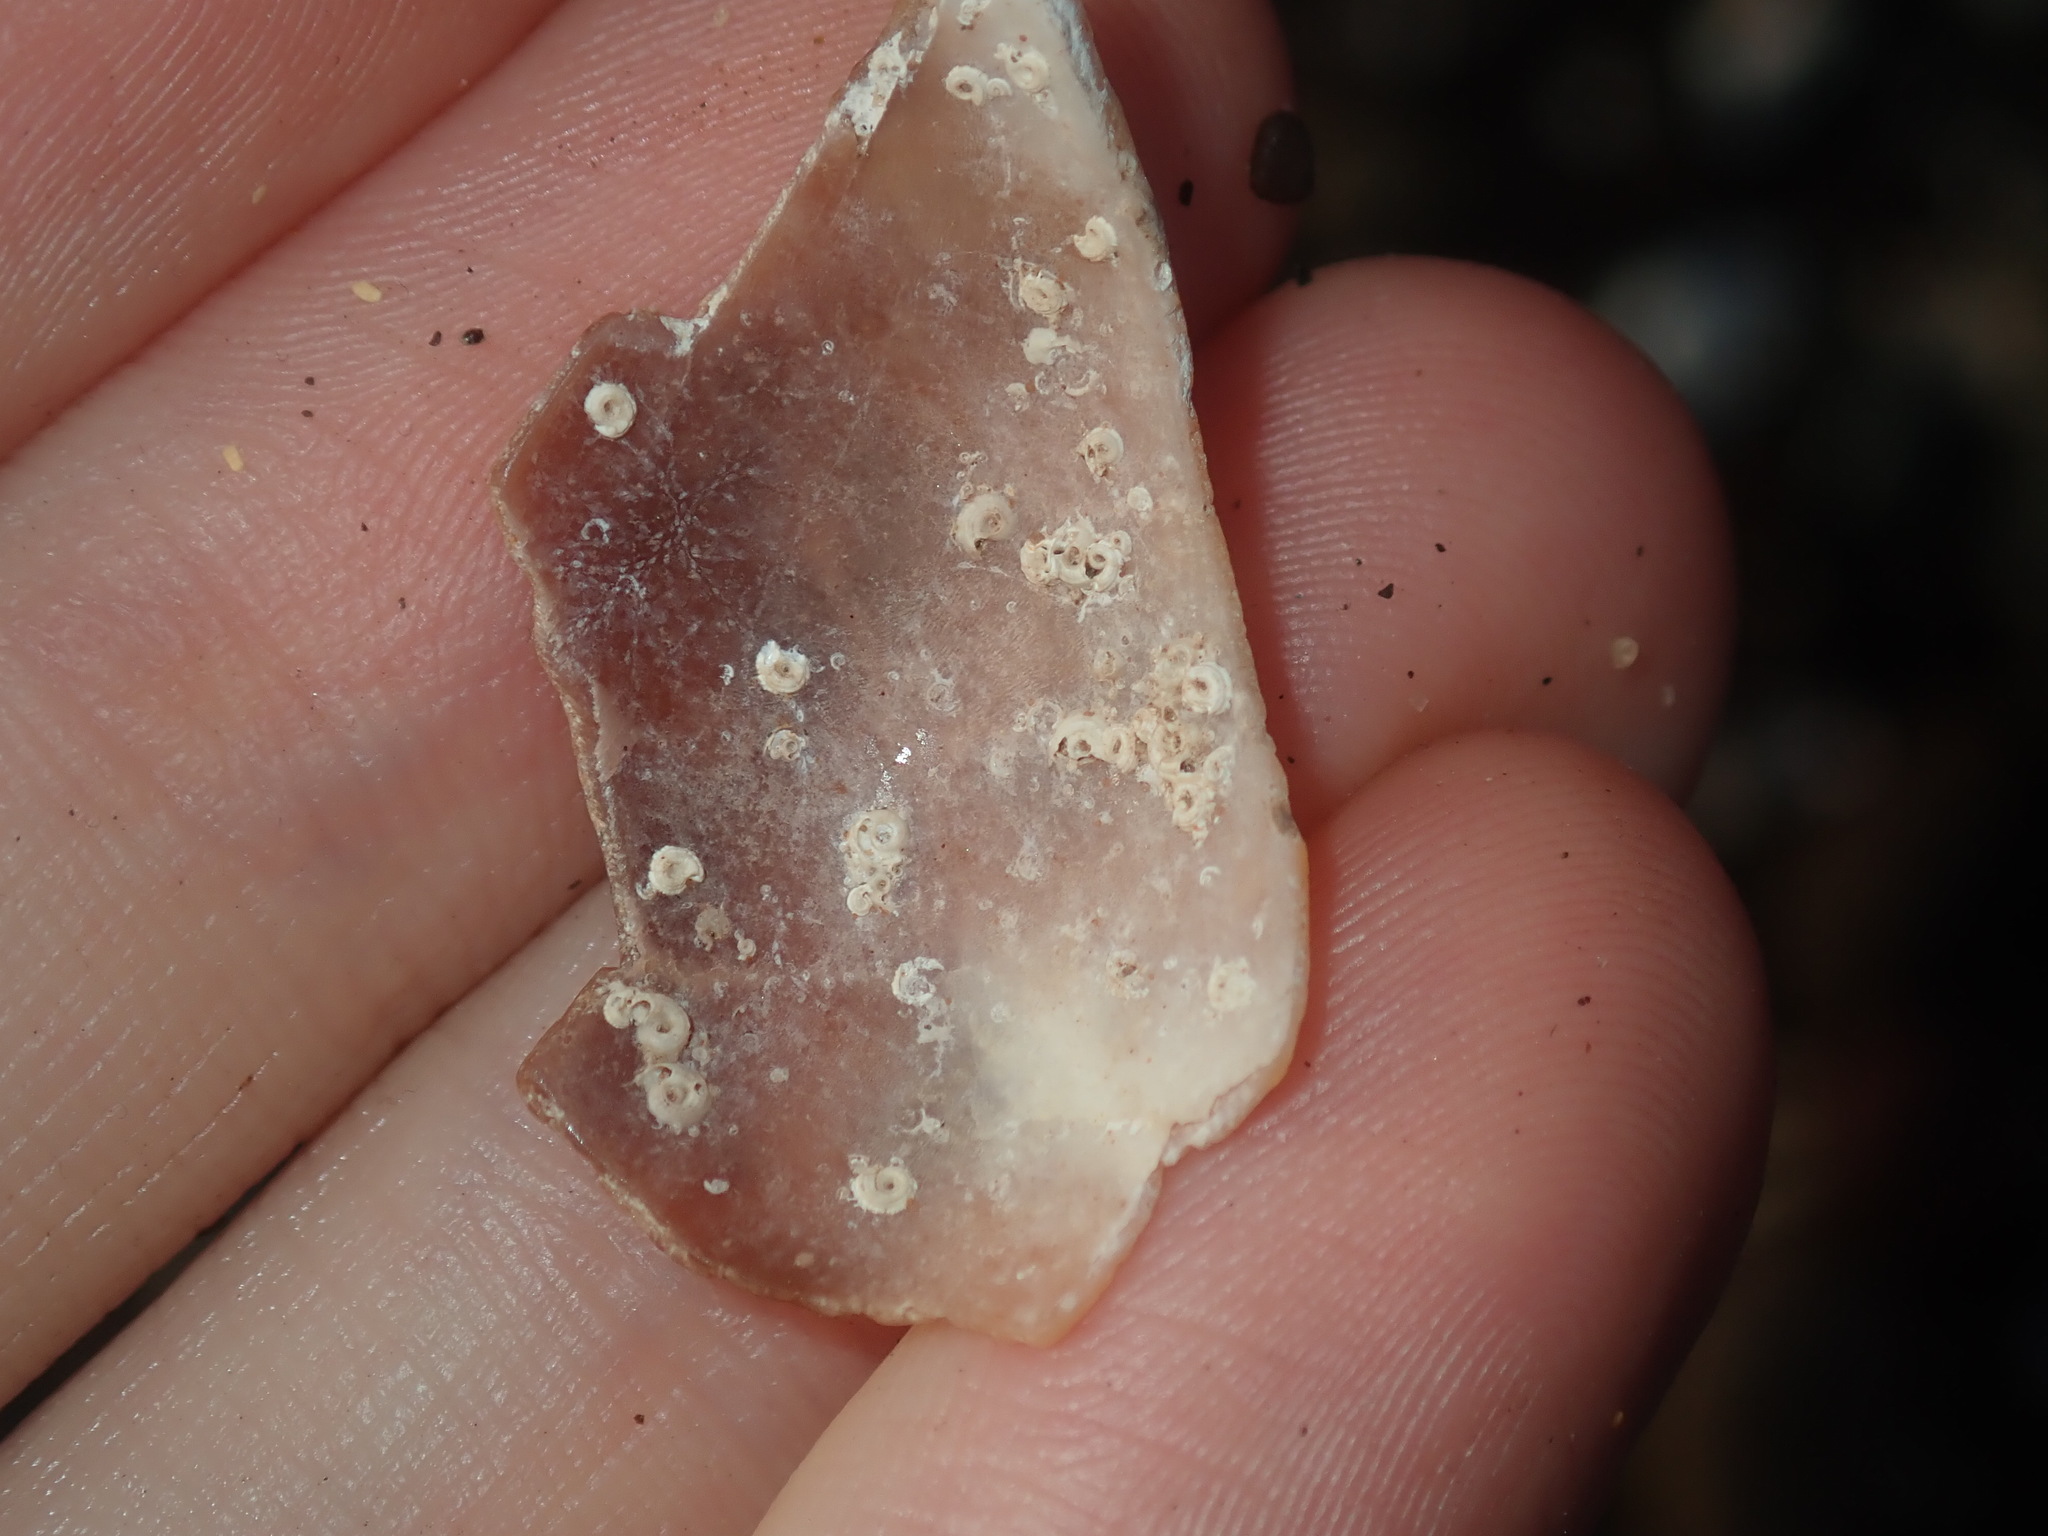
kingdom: Animalia
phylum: Mollusca
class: Gastropoda
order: Littorinimorpha
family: Cassidae
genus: Semicassis
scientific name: Semicassis labiata
